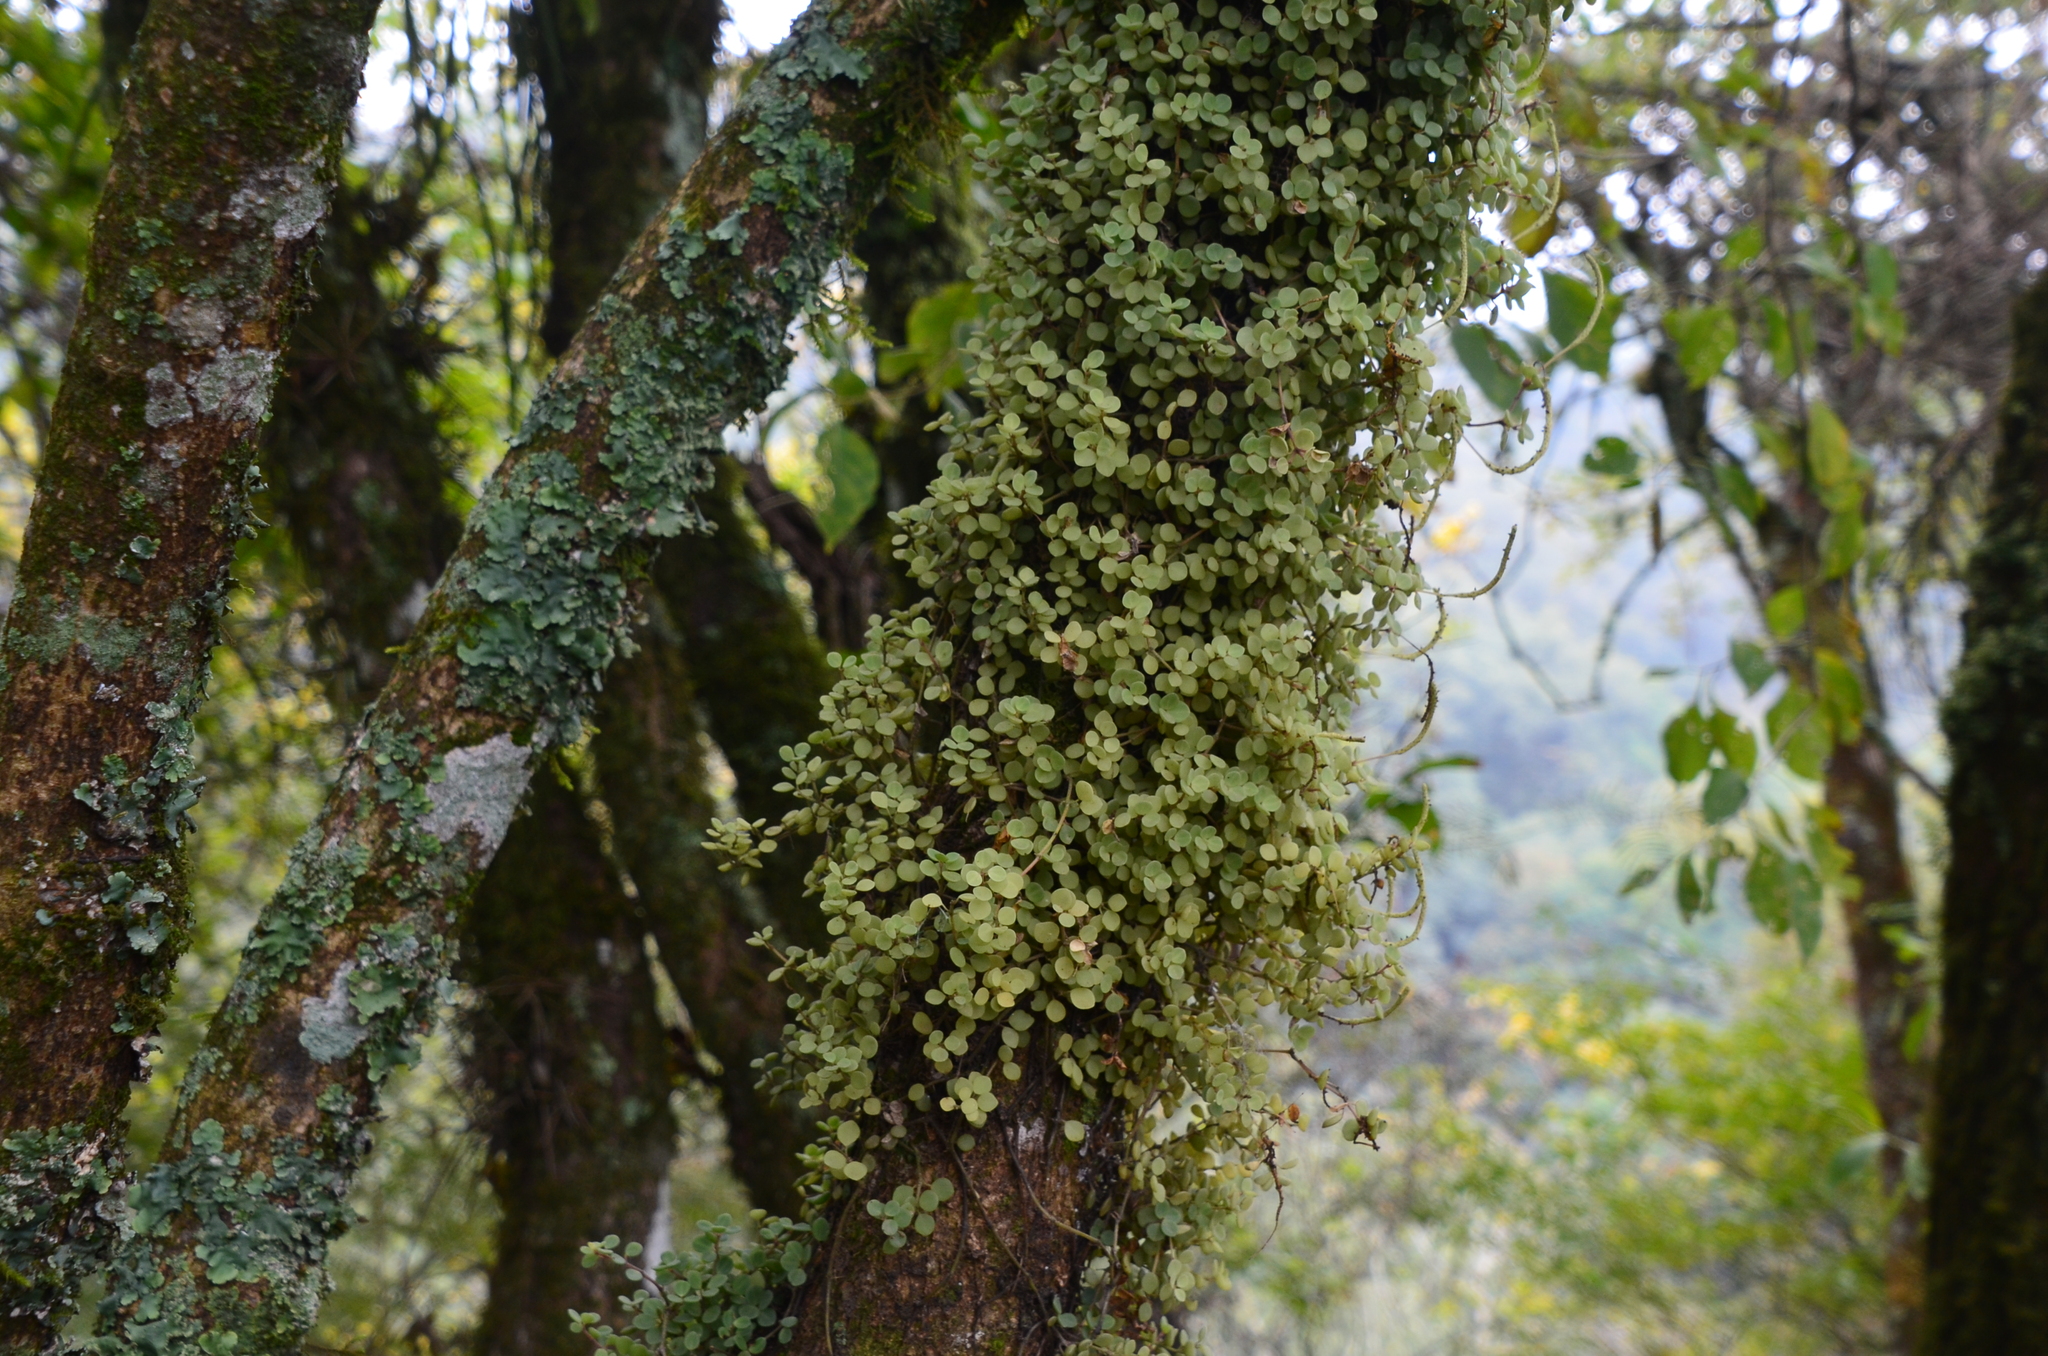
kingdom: Plantae
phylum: Tracheophyta
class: Magnoliopsida
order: Piperales
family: Piperaceae
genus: Peperomia
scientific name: Peperomia lorentzii
